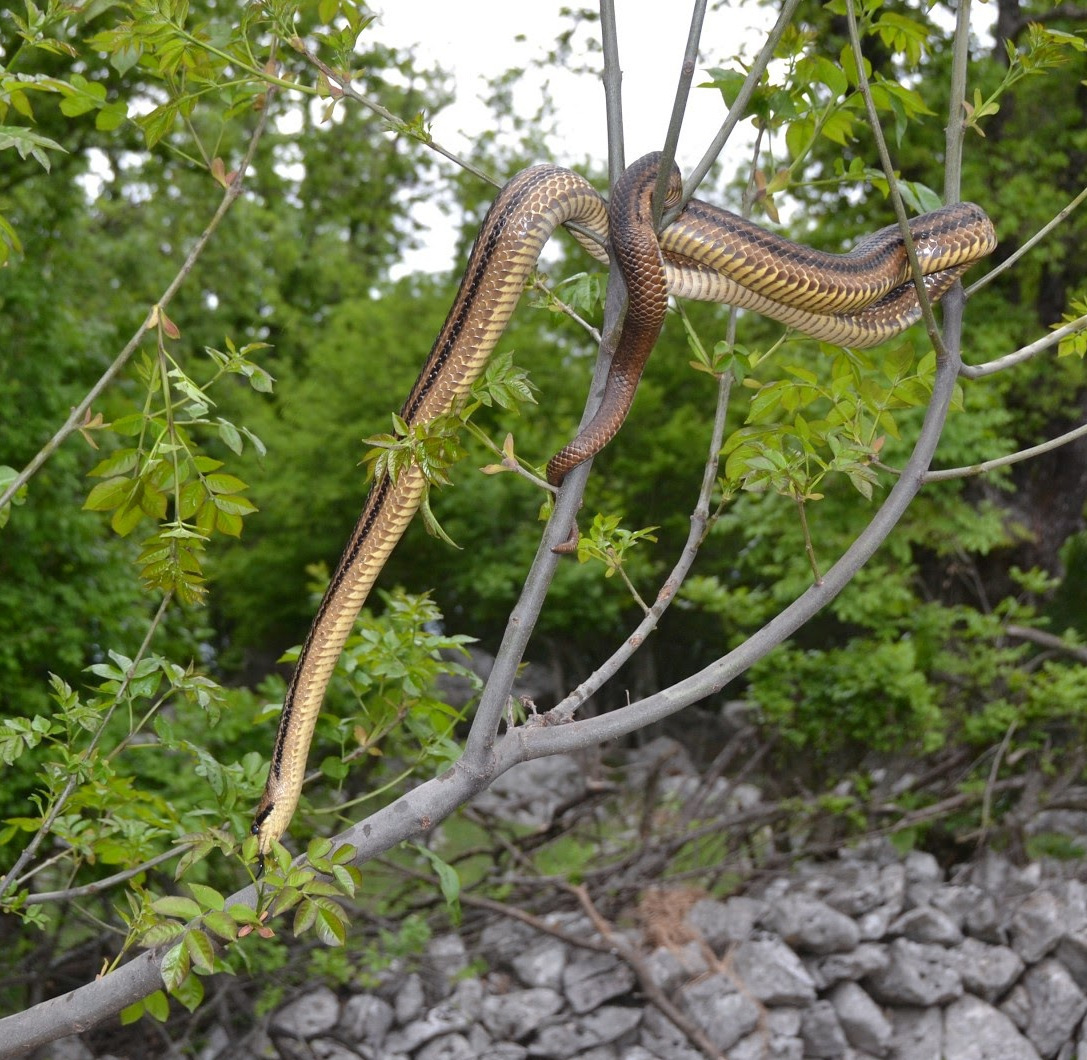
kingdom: Animalia
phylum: Chordata
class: Squamata
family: Colubridae
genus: Elaphe
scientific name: Elaphe quatuorlineata
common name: Four-lined snake
